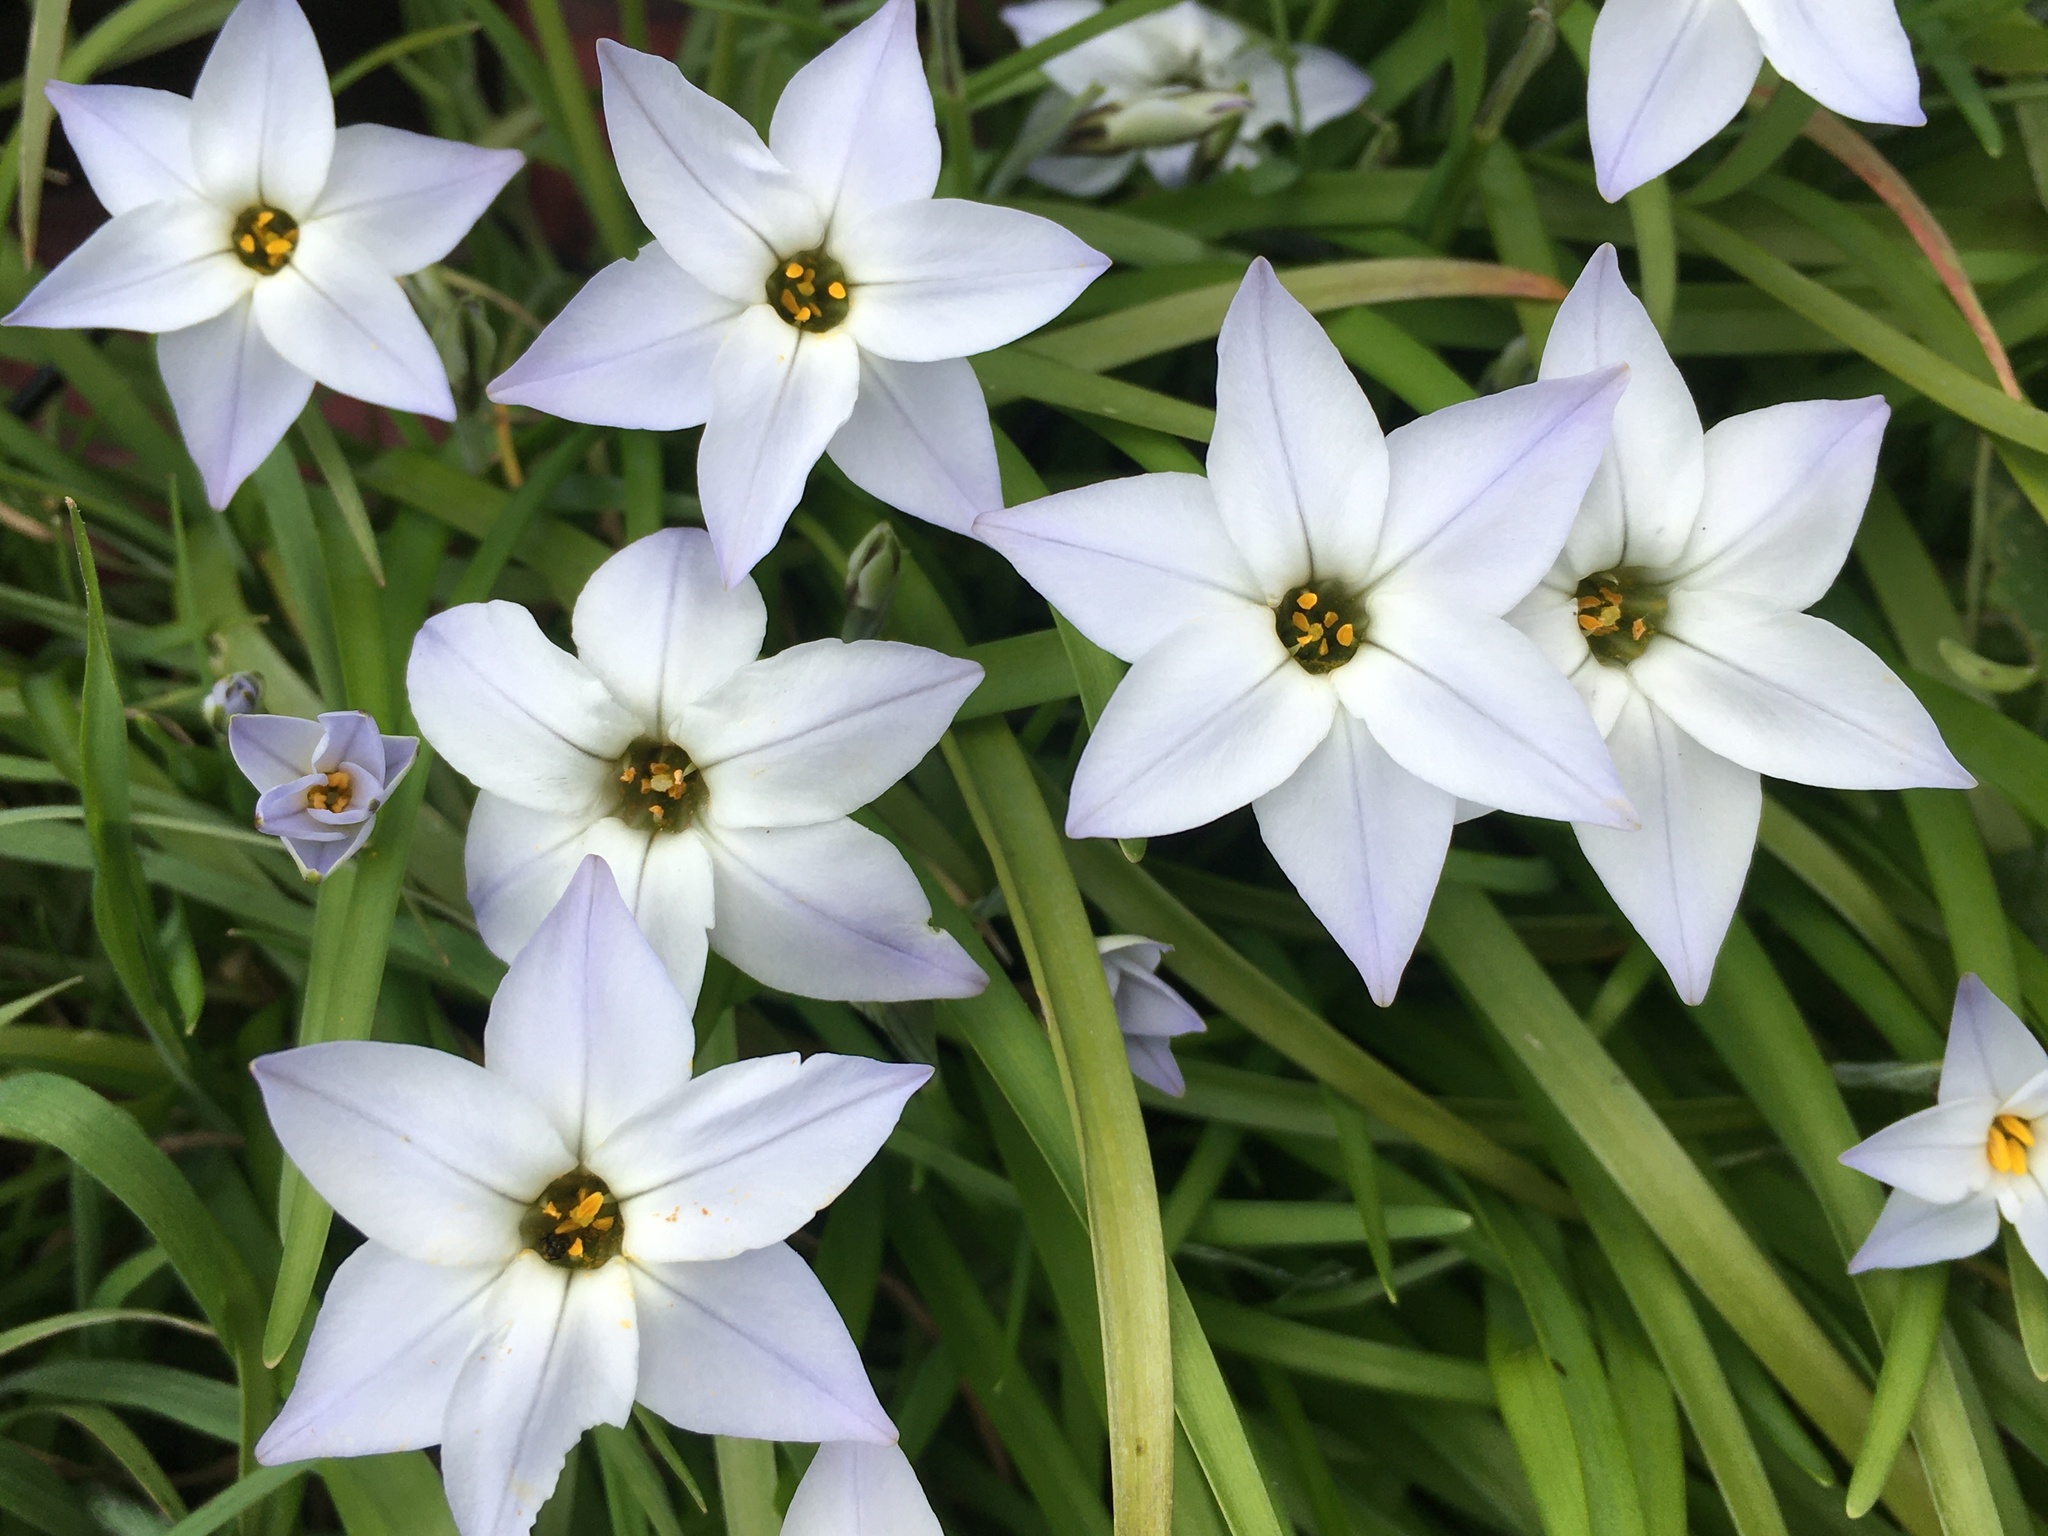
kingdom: Plantae
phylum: Tracheophyta
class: Liliopsida
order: Asparagales
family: Amaryllidaceae
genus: Ipheion
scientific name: Ipheion uniflorum
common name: Spring starflower
